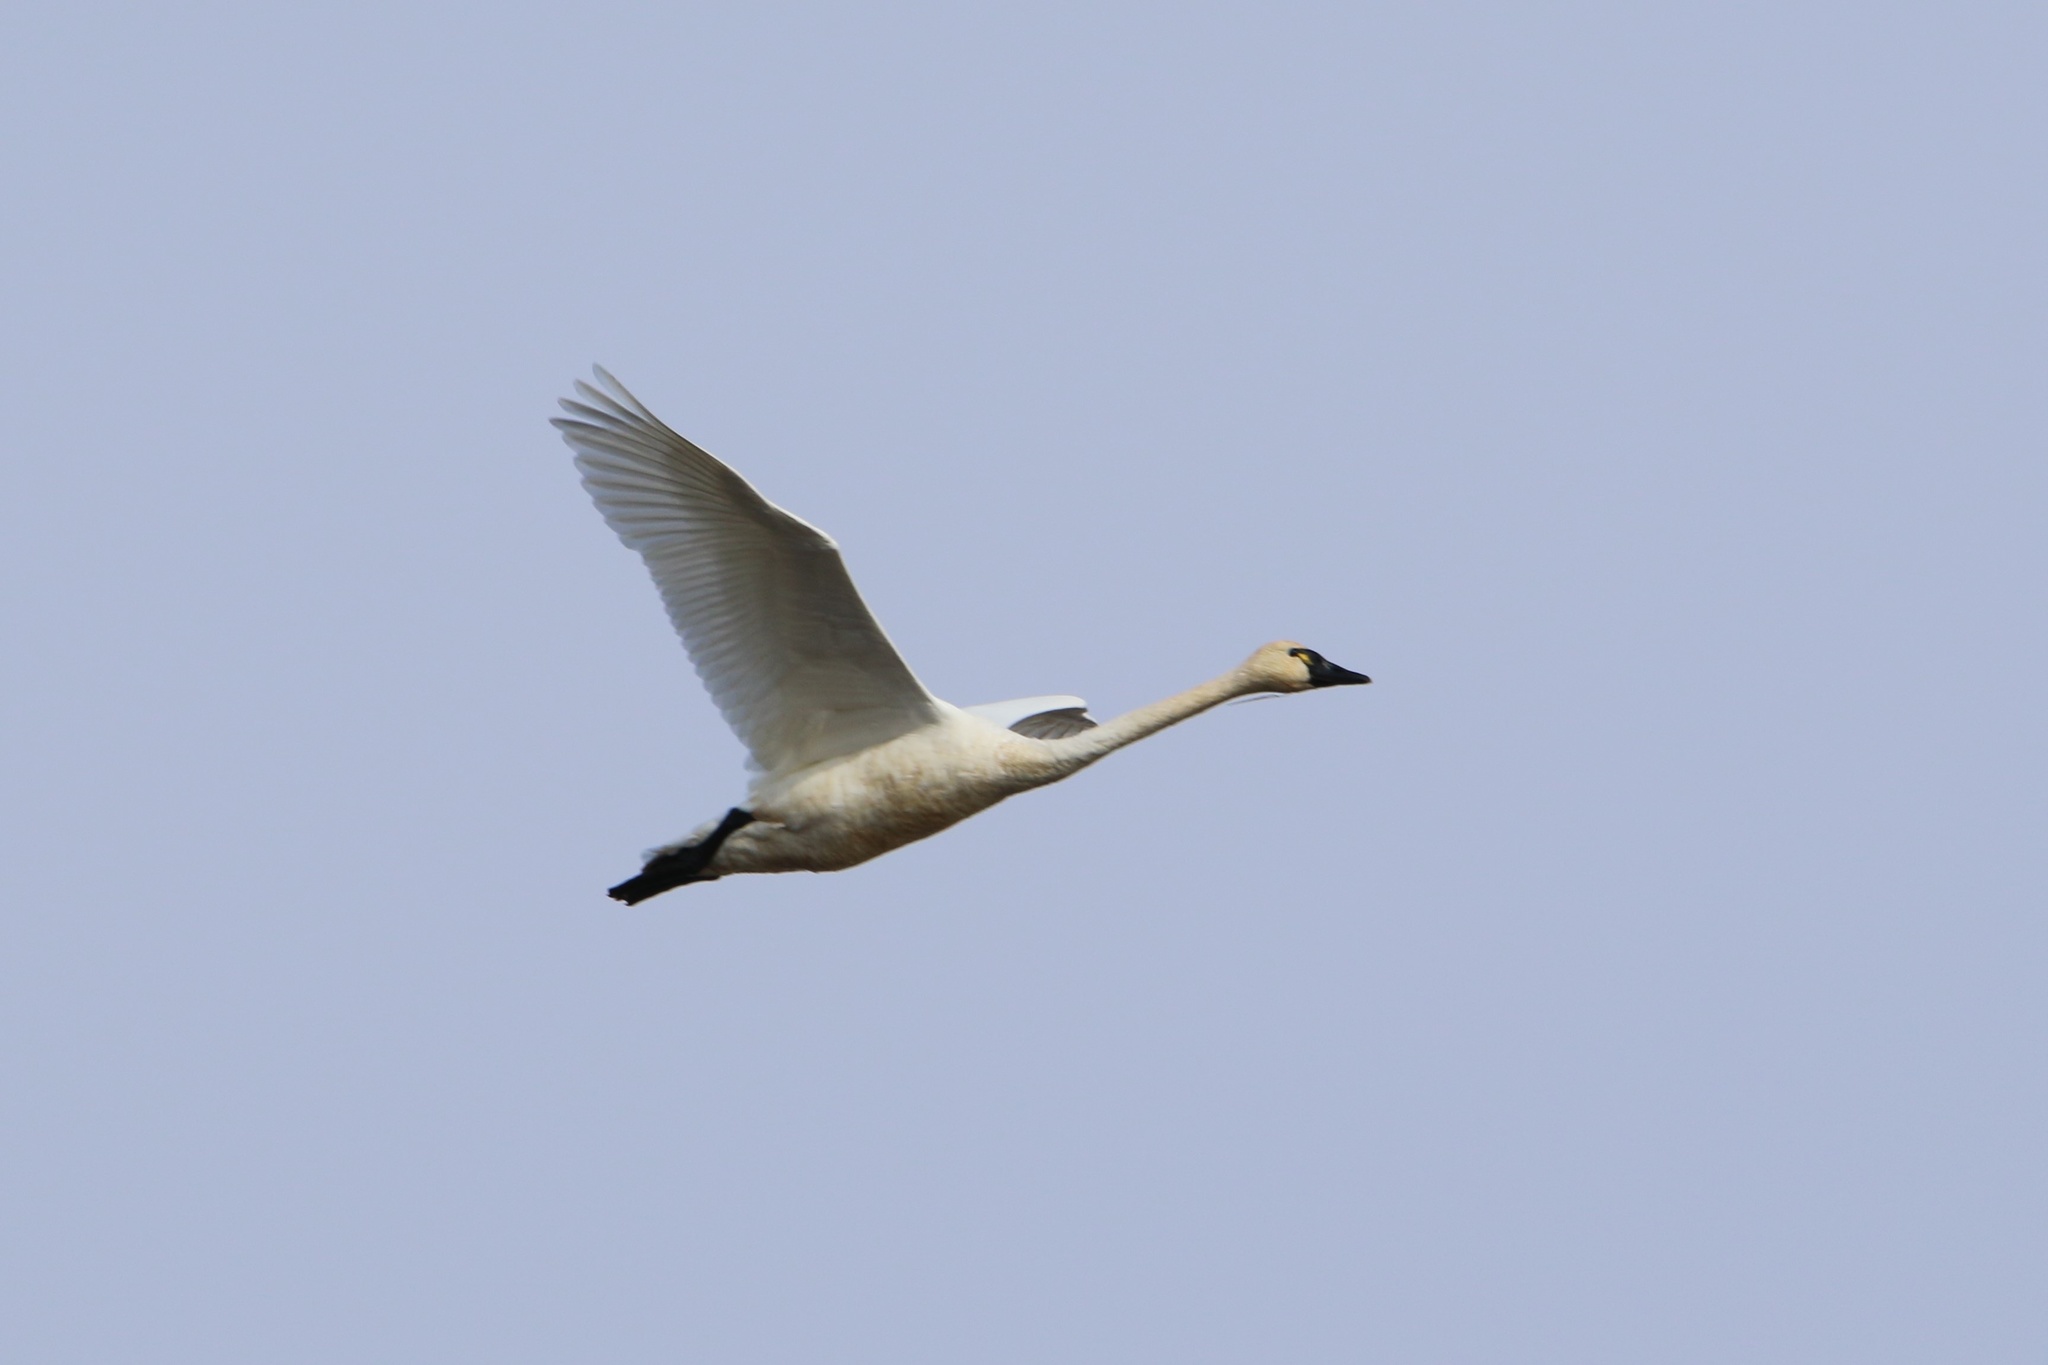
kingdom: Animalia
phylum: Chordata
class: Aves
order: Anseriformes
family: Anatidae
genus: Cygnus
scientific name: Cygnus columbianus
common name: Tundra swan
